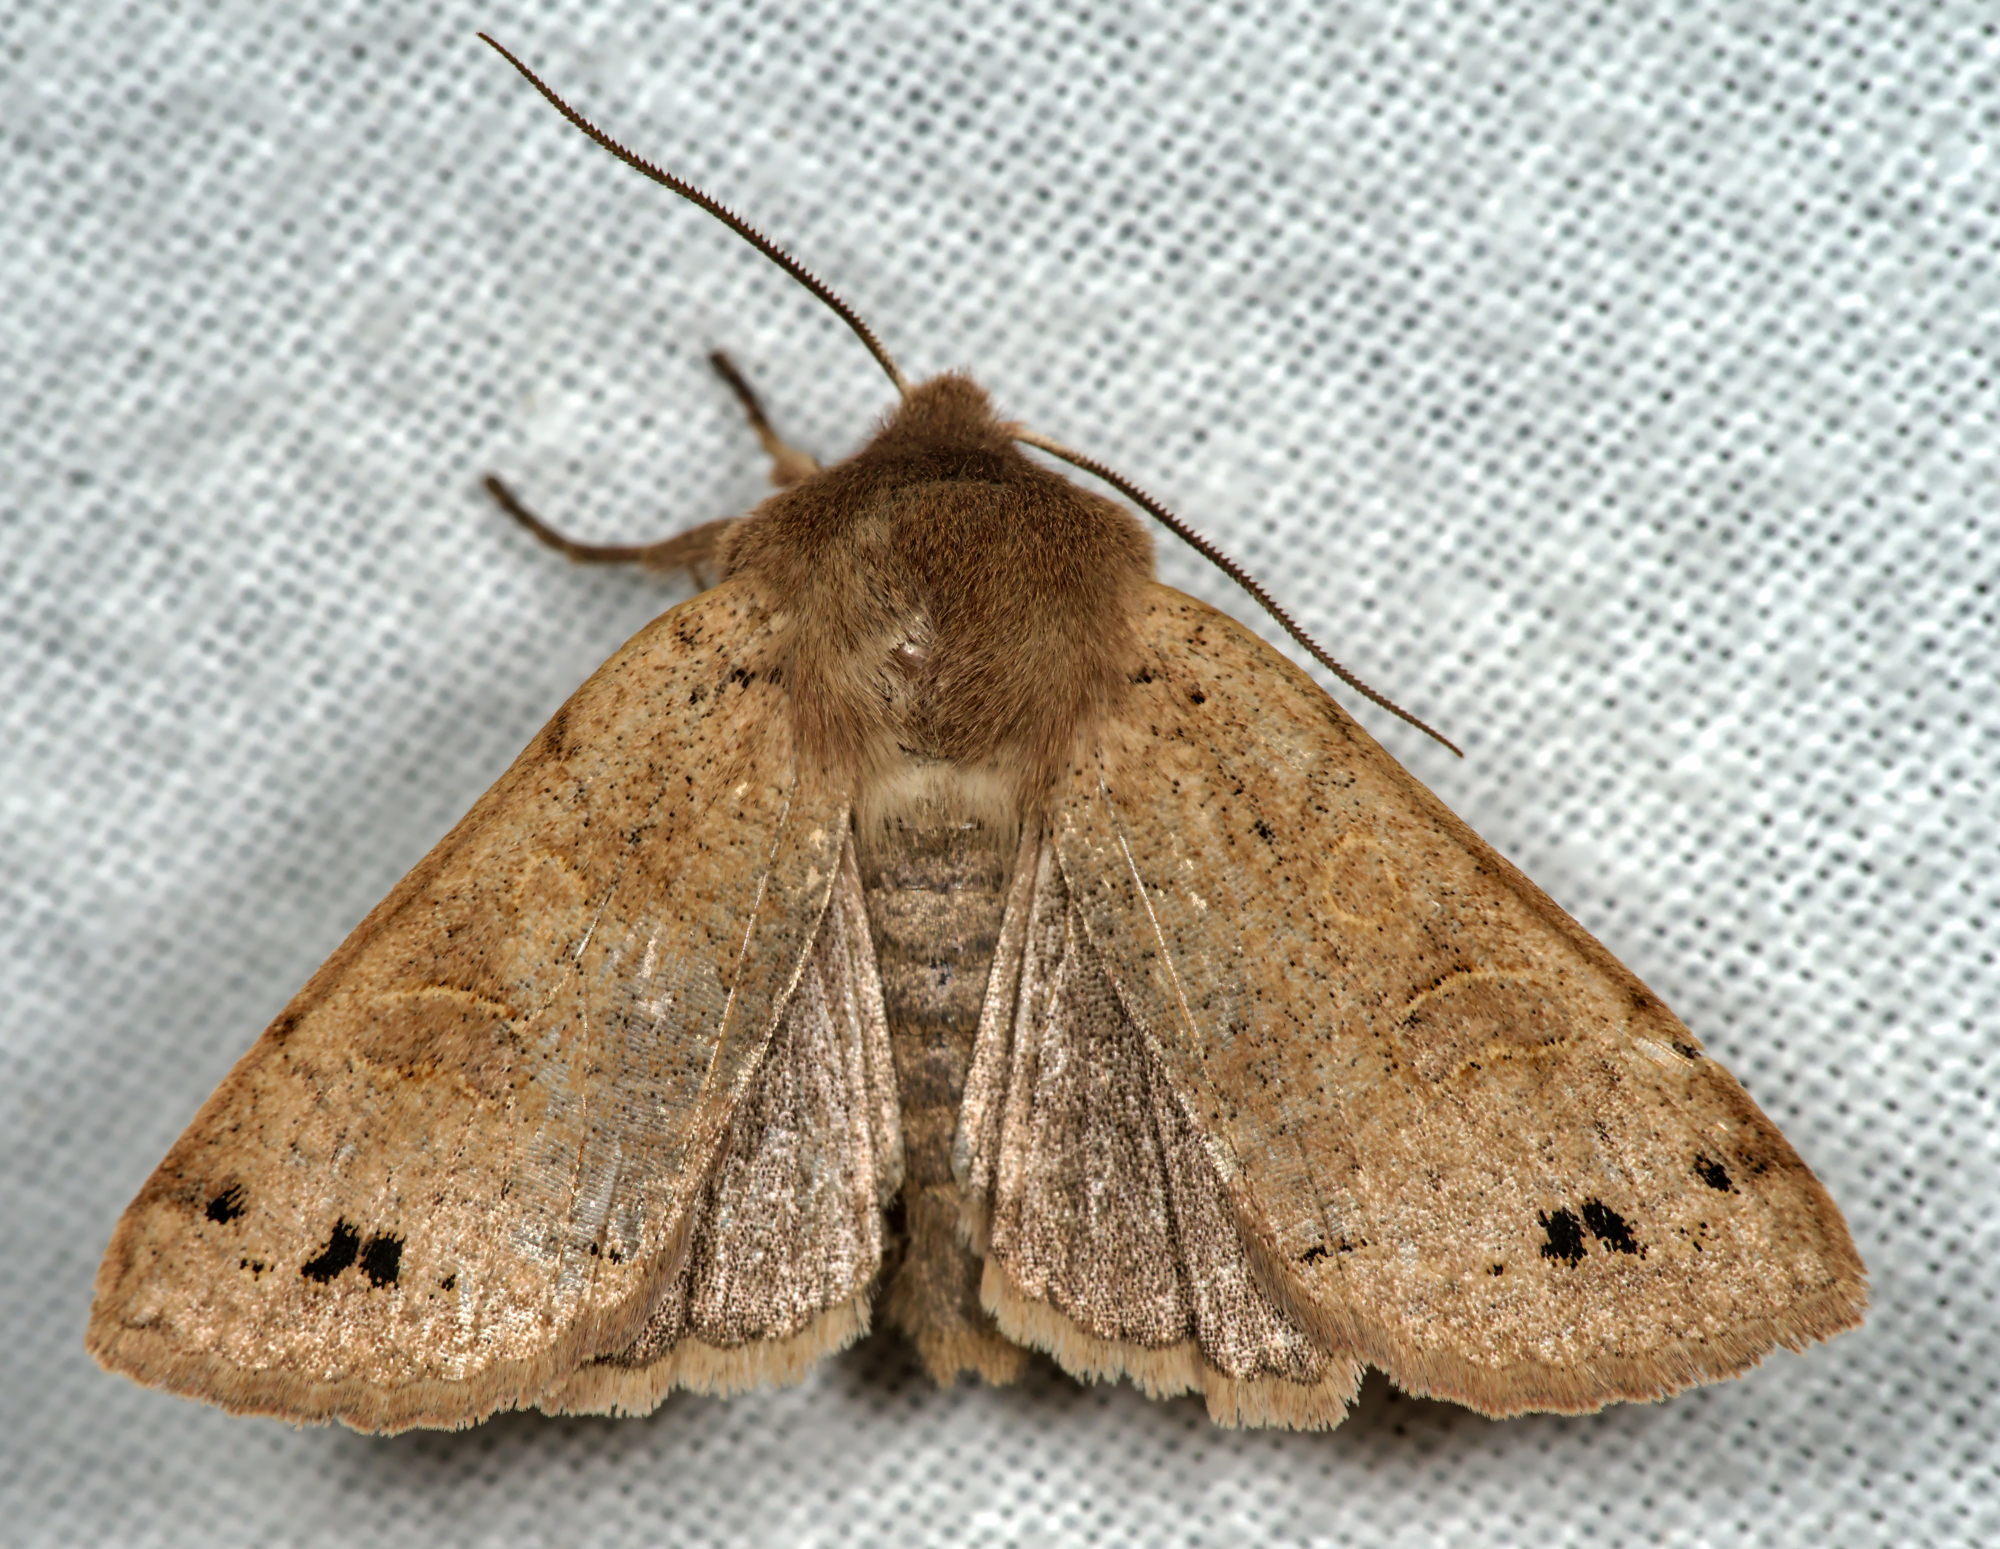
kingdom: Animalia
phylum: Arthropoda
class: Insecta
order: Lepidoptera
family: Noctuidae
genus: Anorthoa
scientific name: Anorthoa munda
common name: Twin-spotted quaker
